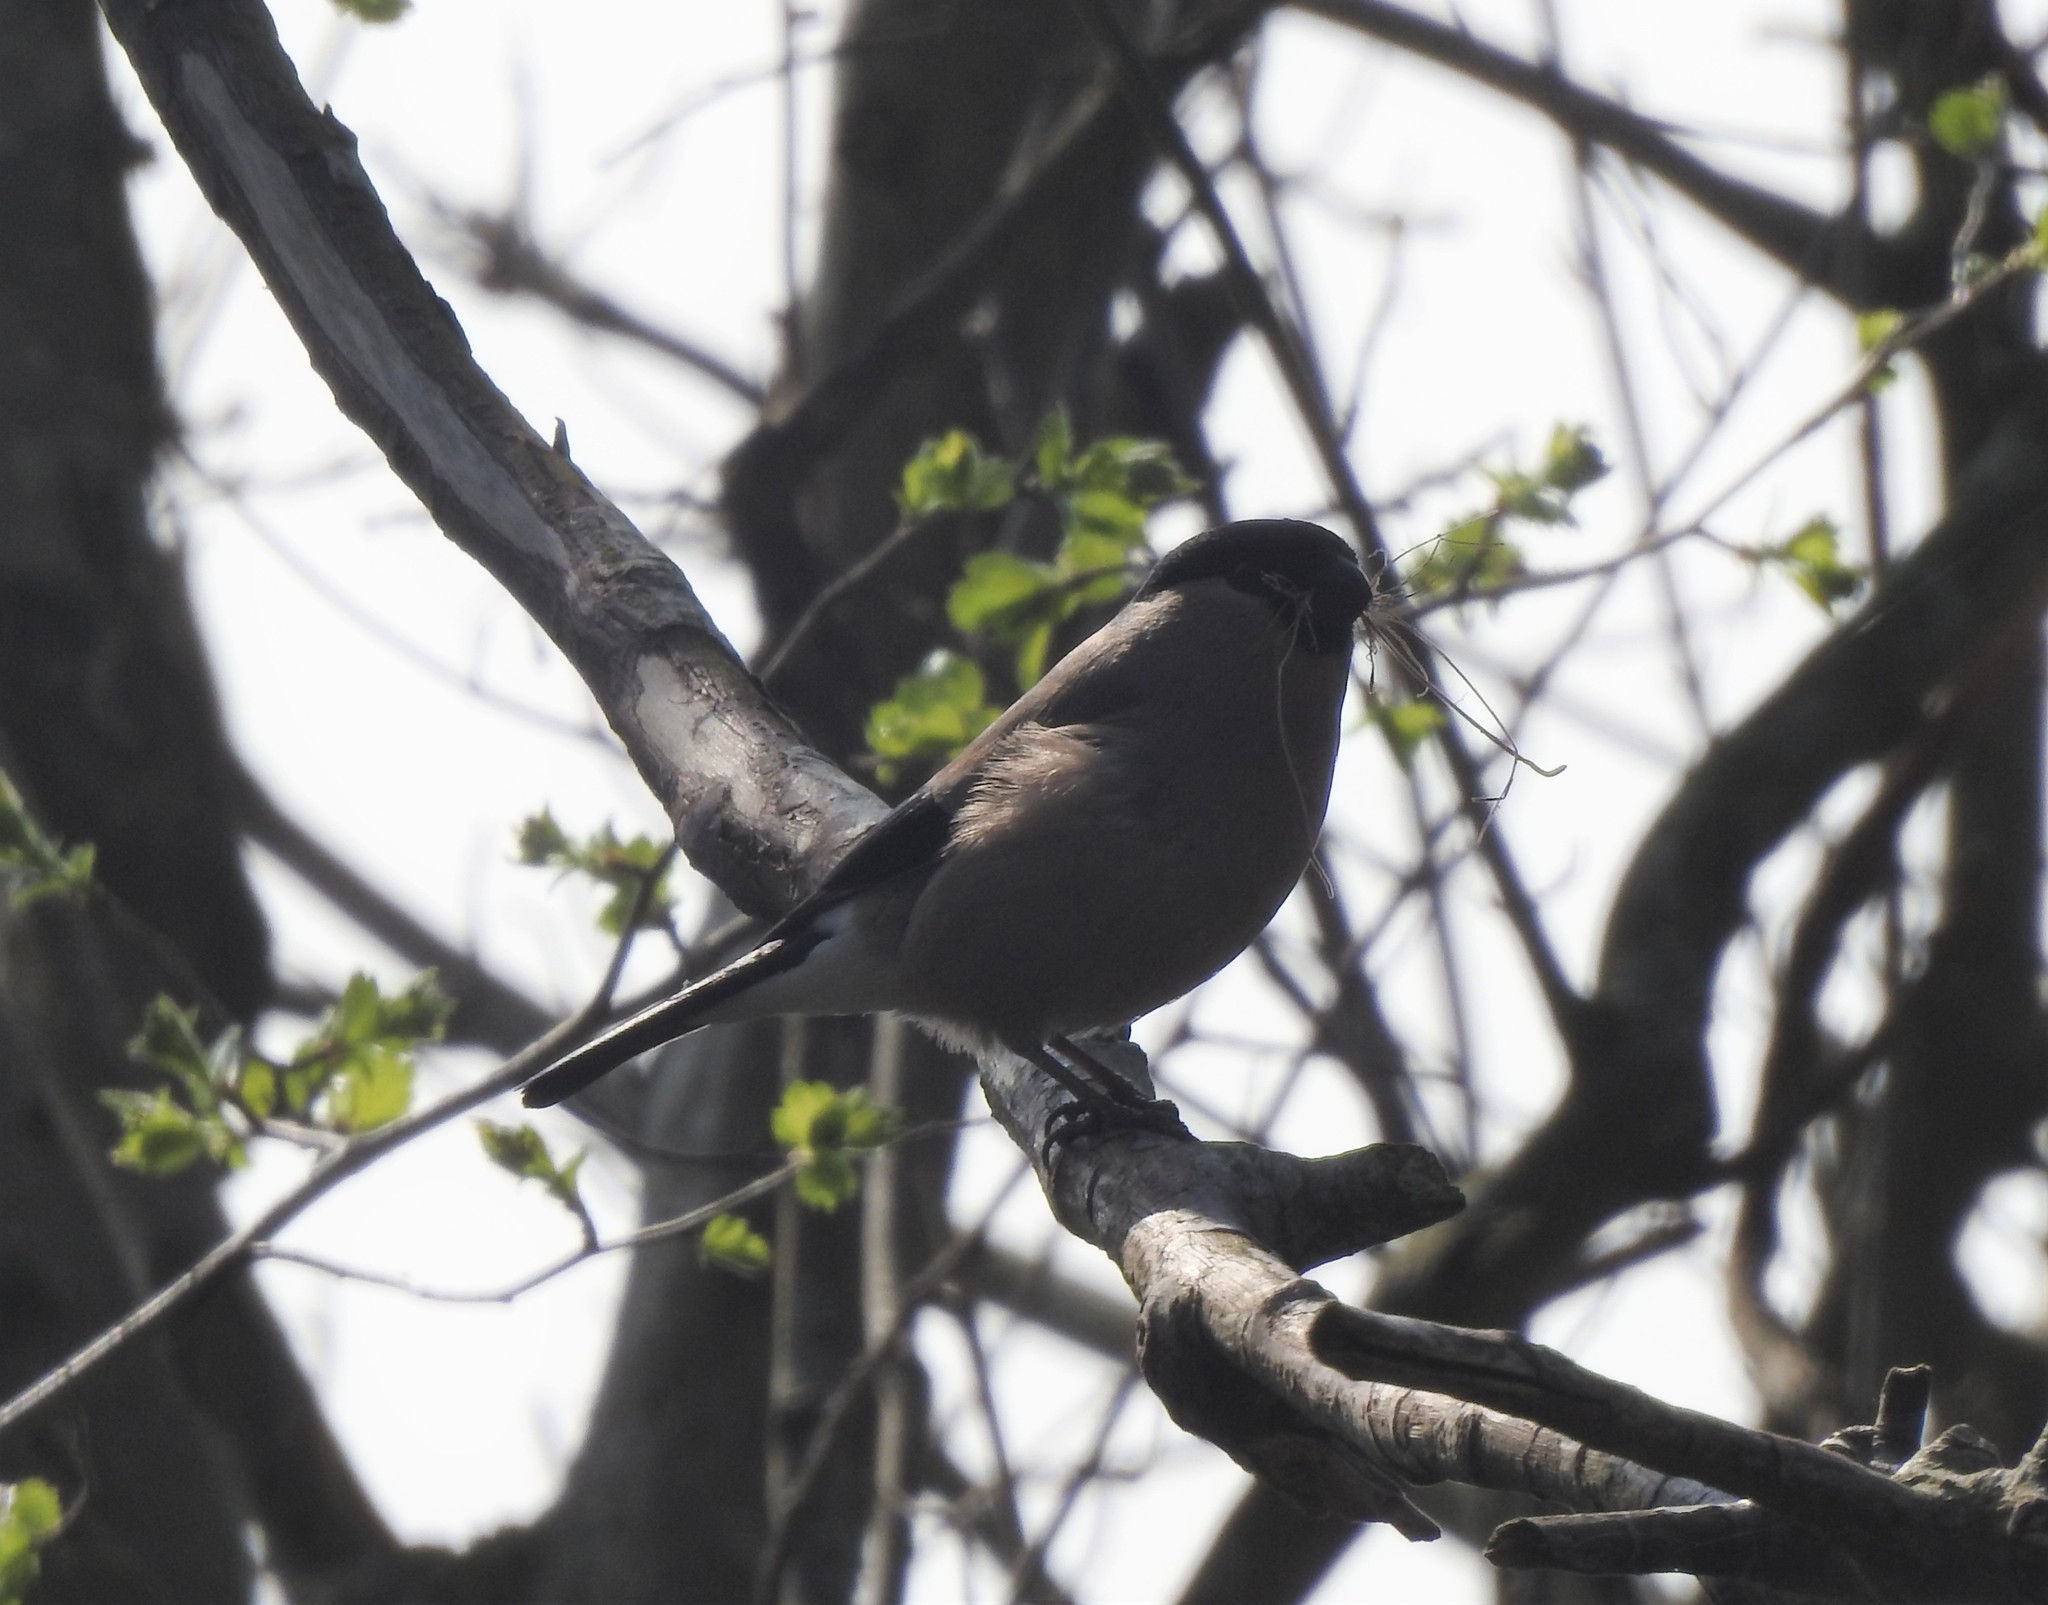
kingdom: Animalia
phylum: Chordata
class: Aves
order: Passeriformes
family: Fringillidae
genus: Pyrrhula
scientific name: Pyrrhula pyrrhula
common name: Eurasian bullfinch
